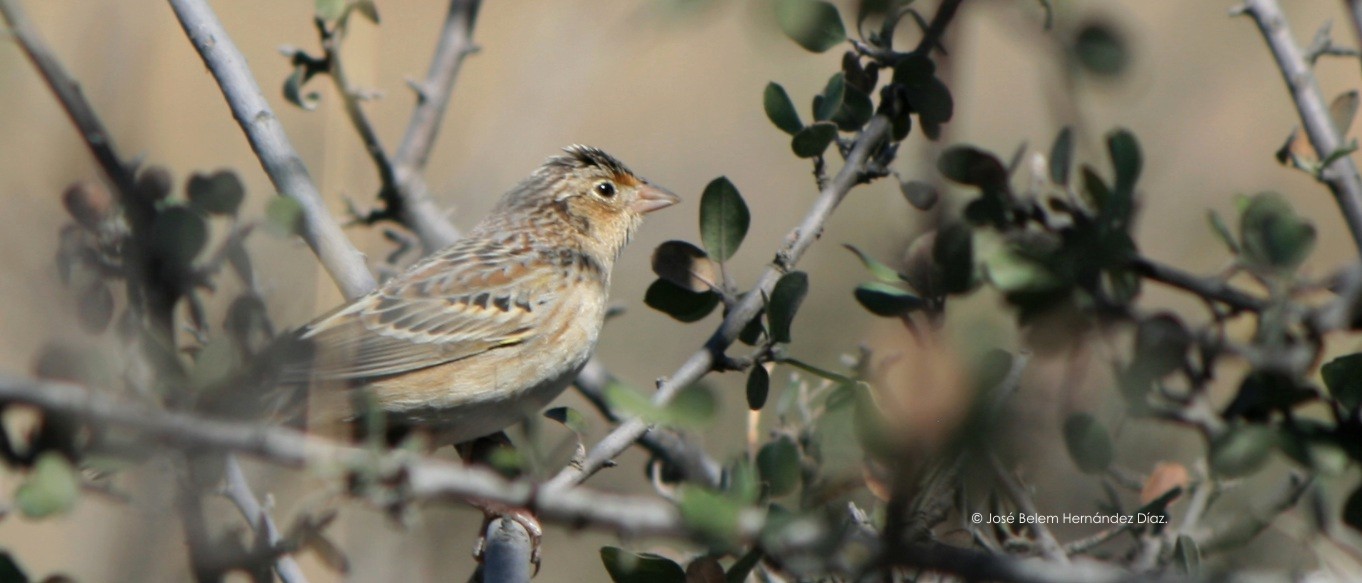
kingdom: Animalia
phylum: Chordata
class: Aves
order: Passeriformes
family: Passerellidae
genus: Ammodramus
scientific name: Ammodramus savannarum
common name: Grasshopper sparrow
